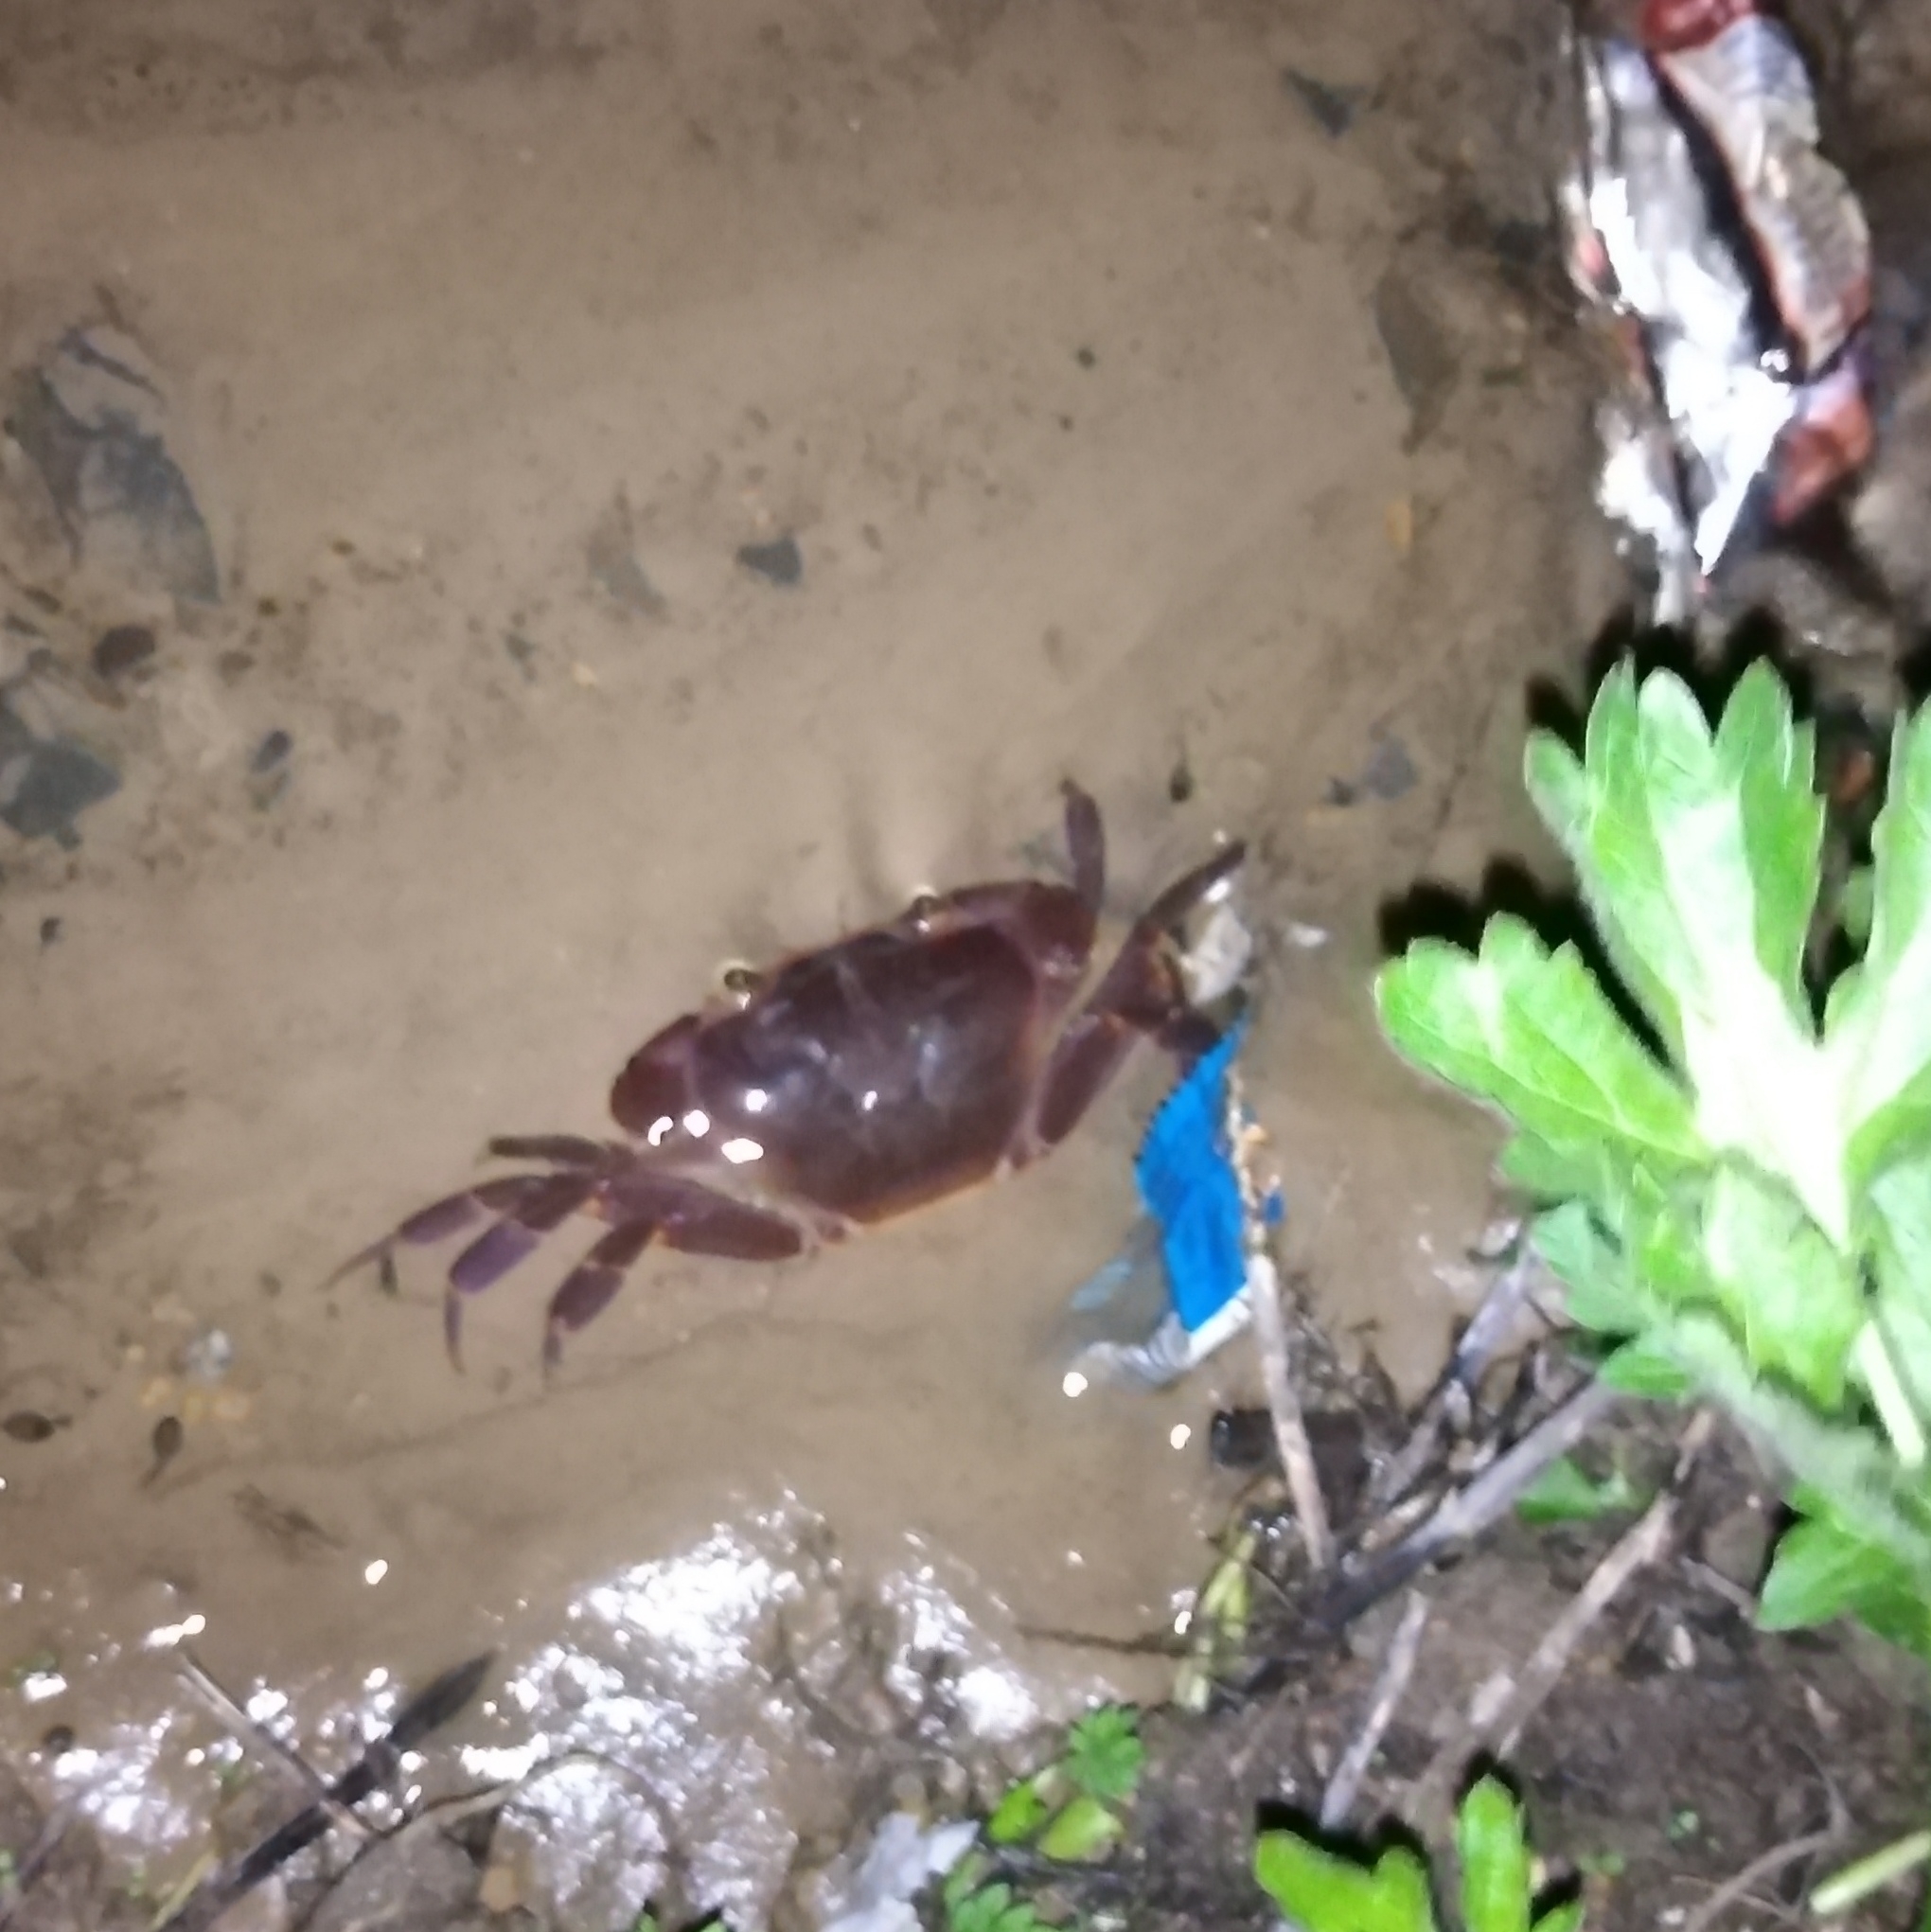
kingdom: Animalia
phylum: Arthropoda
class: Malacostraca
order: Decapoda
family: Potamonautidae
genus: Potamonautes
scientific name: Potamonautes sidneyi
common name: Natal river crab
